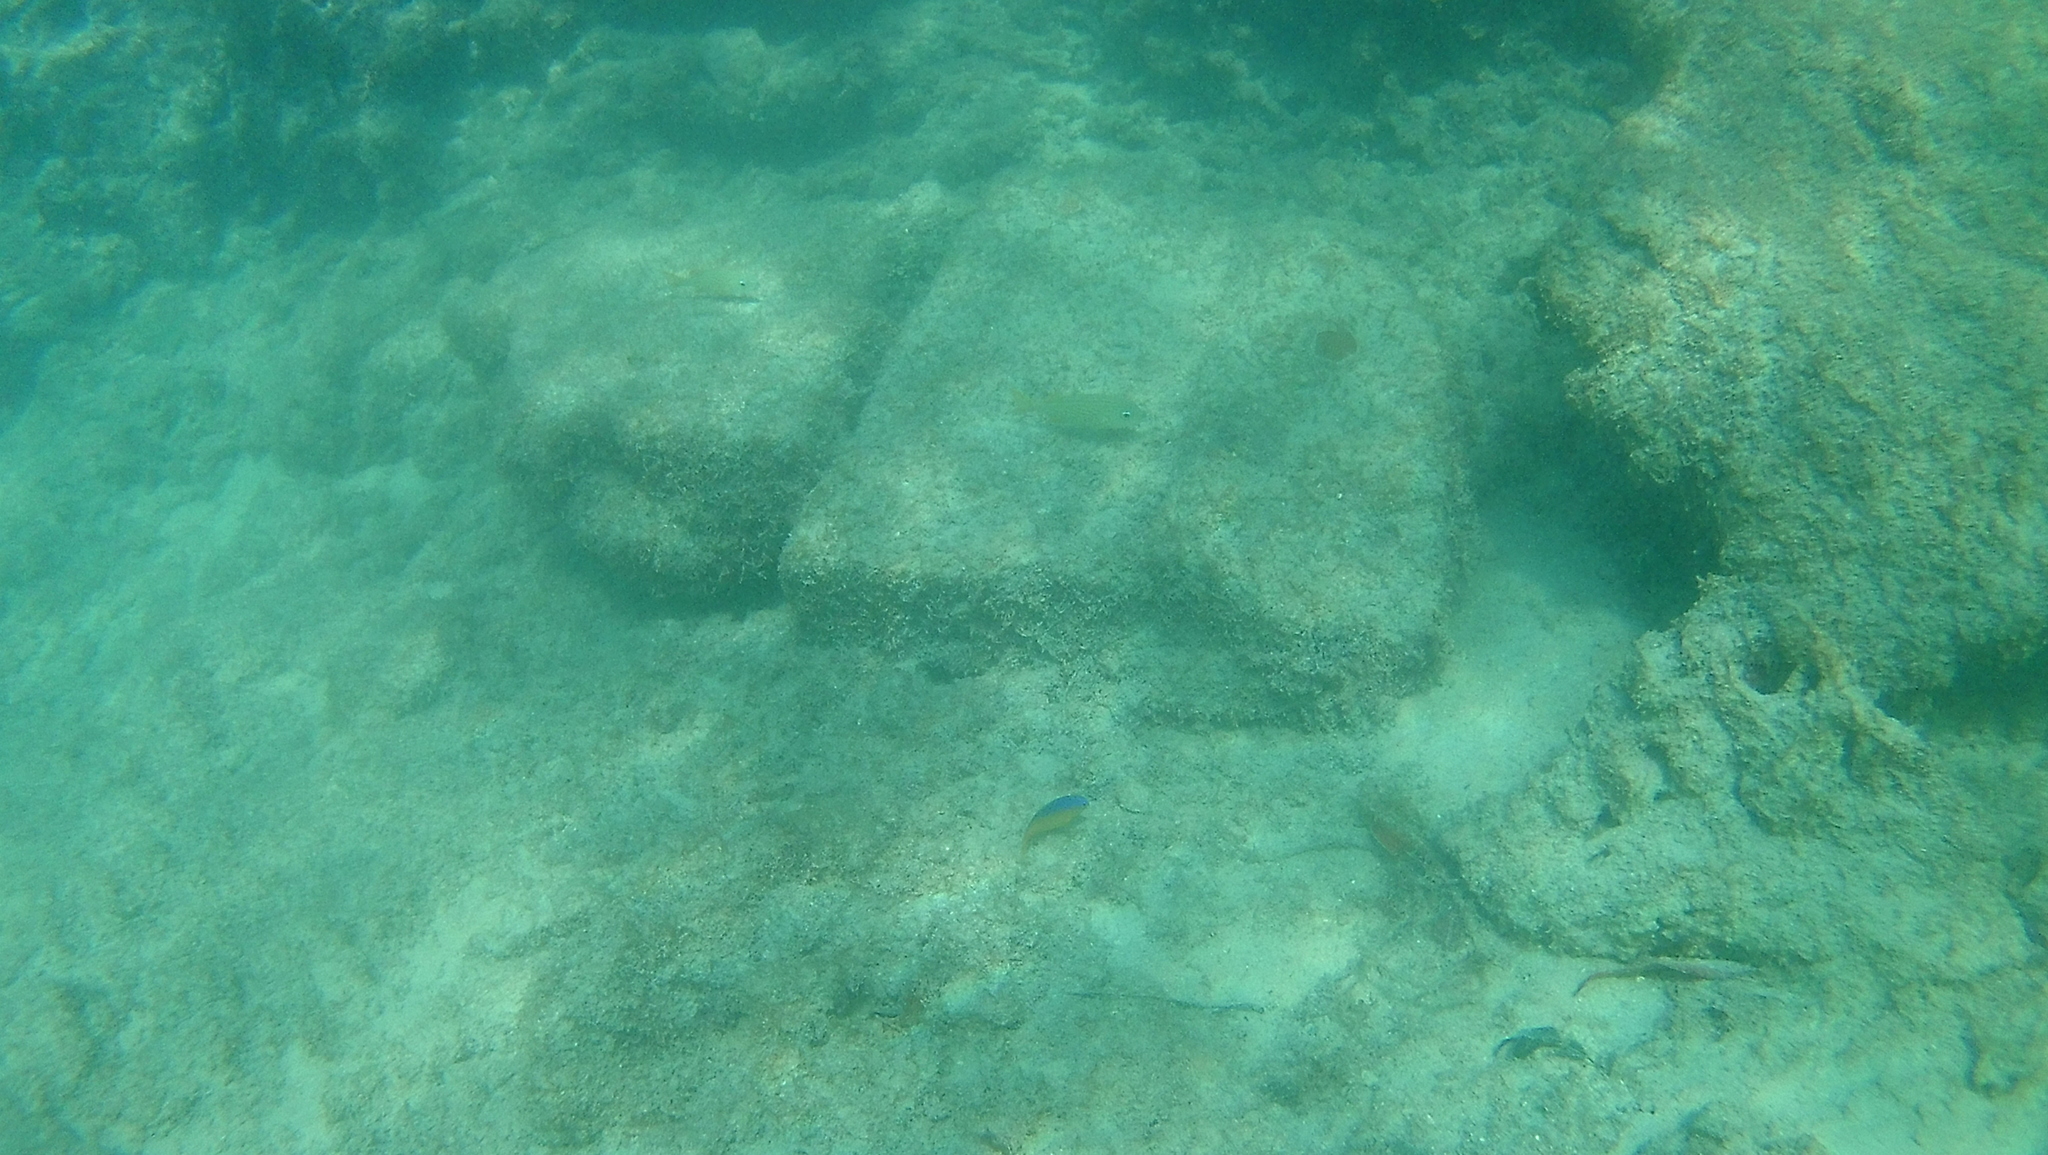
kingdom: Animalia
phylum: Chordata
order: Perciformes
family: Pomacentridae
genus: Stegastes
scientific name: Stegastes leucostictus
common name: Beaugregory
